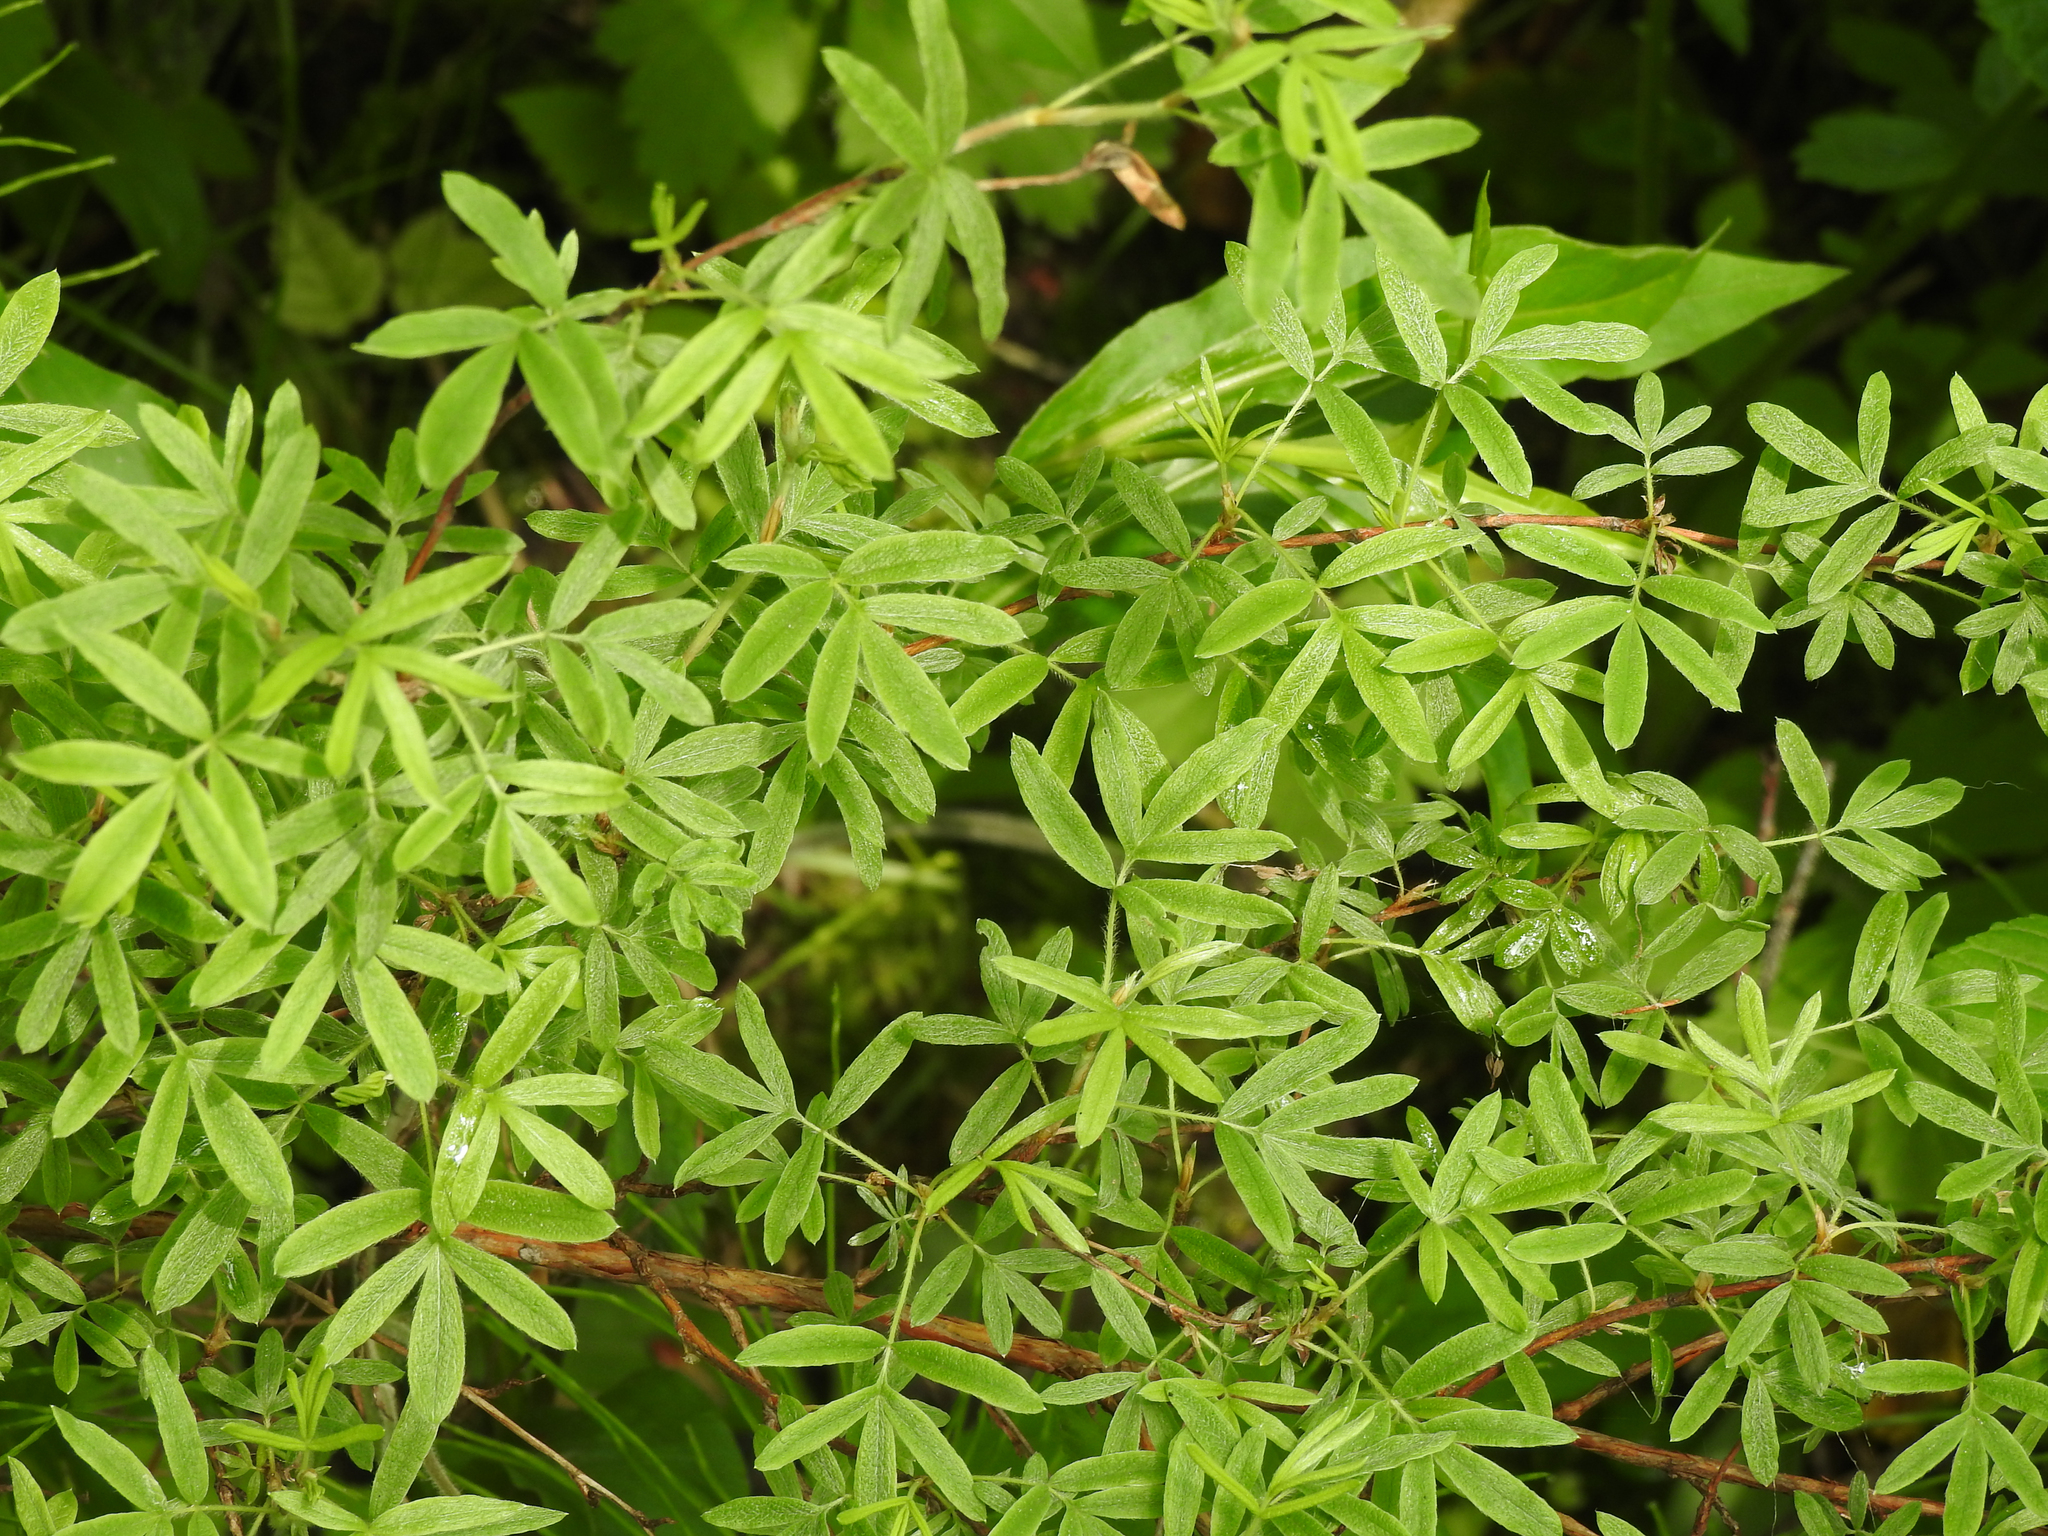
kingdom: Plantae
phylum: Tracheophyta
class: Magnoliopsida
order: Rosales
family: Rosaceae
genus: Dasiphora
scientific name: Dasiphora fruticosa
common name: Shrubby cinquefoil
